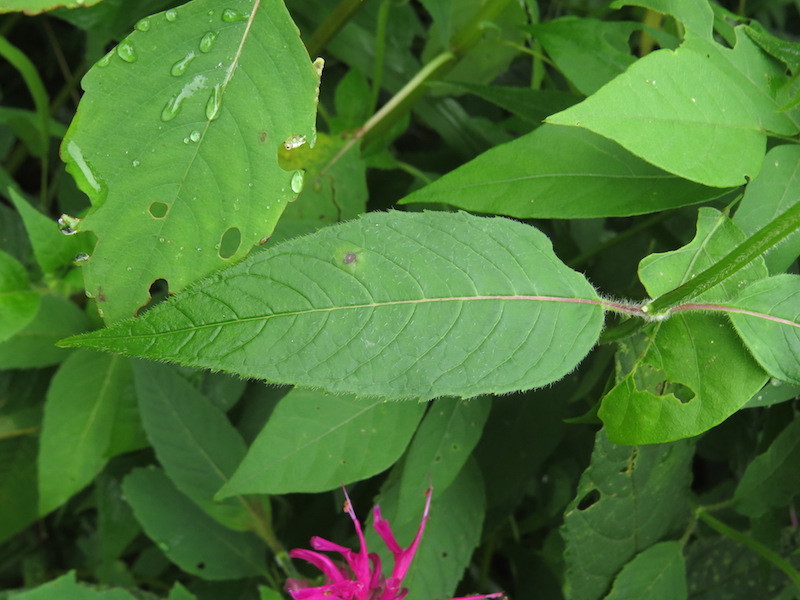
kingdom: Plantae
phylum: Tracheophyta
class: Magnoliopsida
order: Lamiales
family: Lamiaceae
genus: Monarda
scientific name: Monarda didyma
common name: Beebalm
